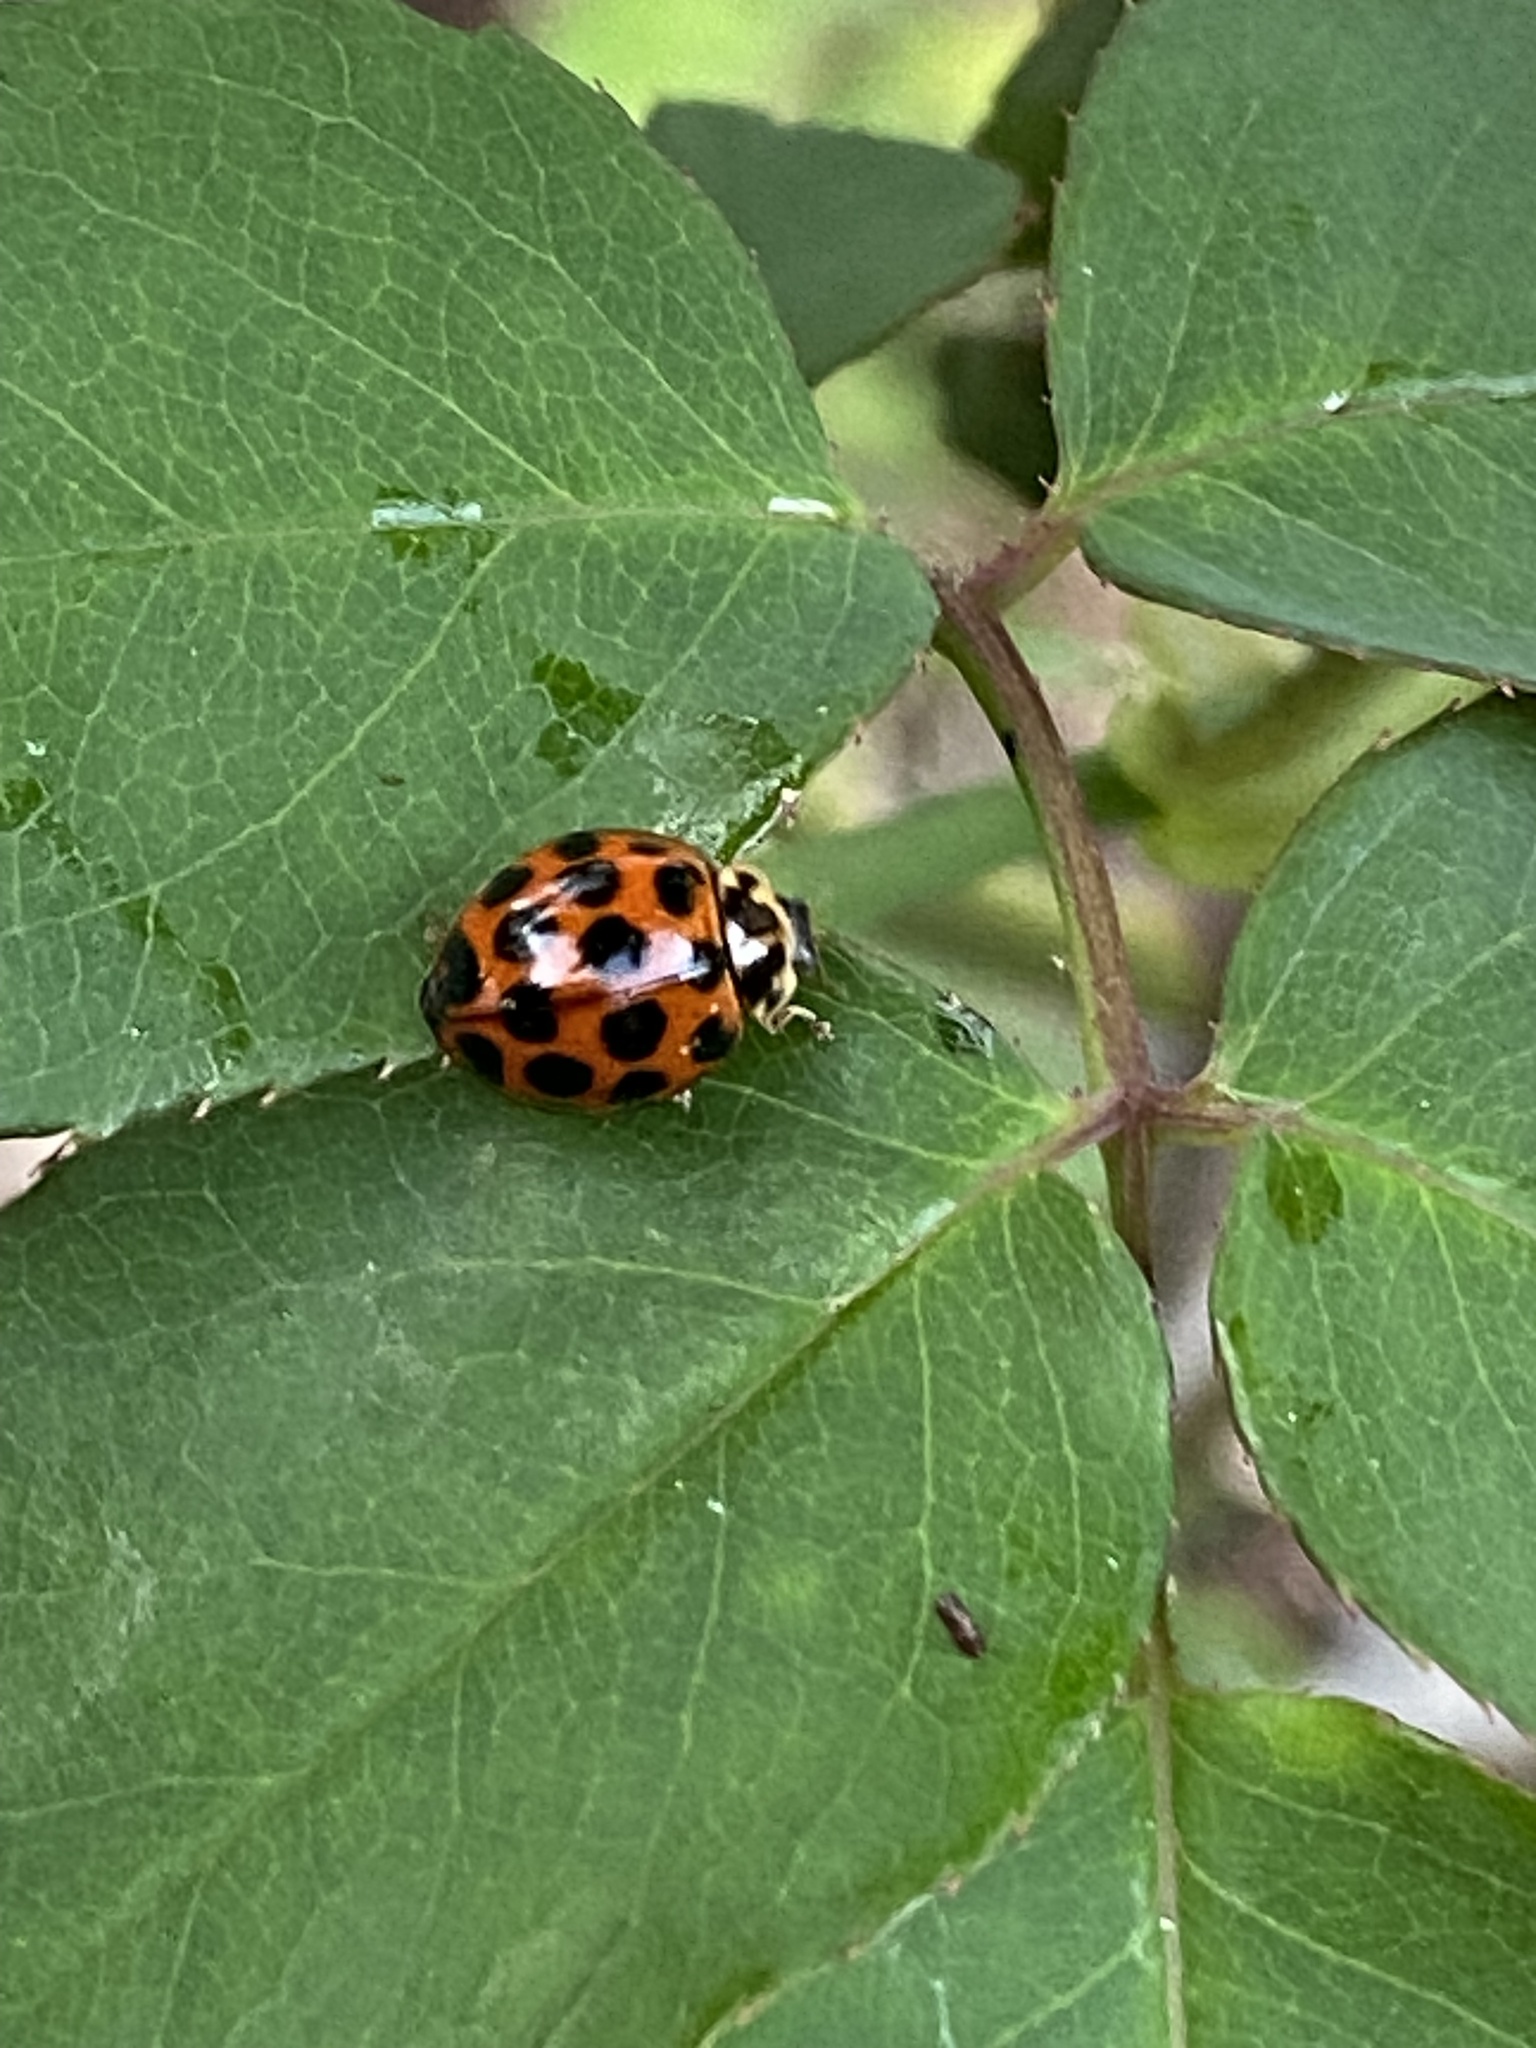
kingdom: Animalia
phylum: Arthropoda
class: Insecta
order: Coleoptera
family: Coccinellidae
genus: Harmonia
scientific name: Harmonia conformis
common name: Common spotted ladybird beetle
